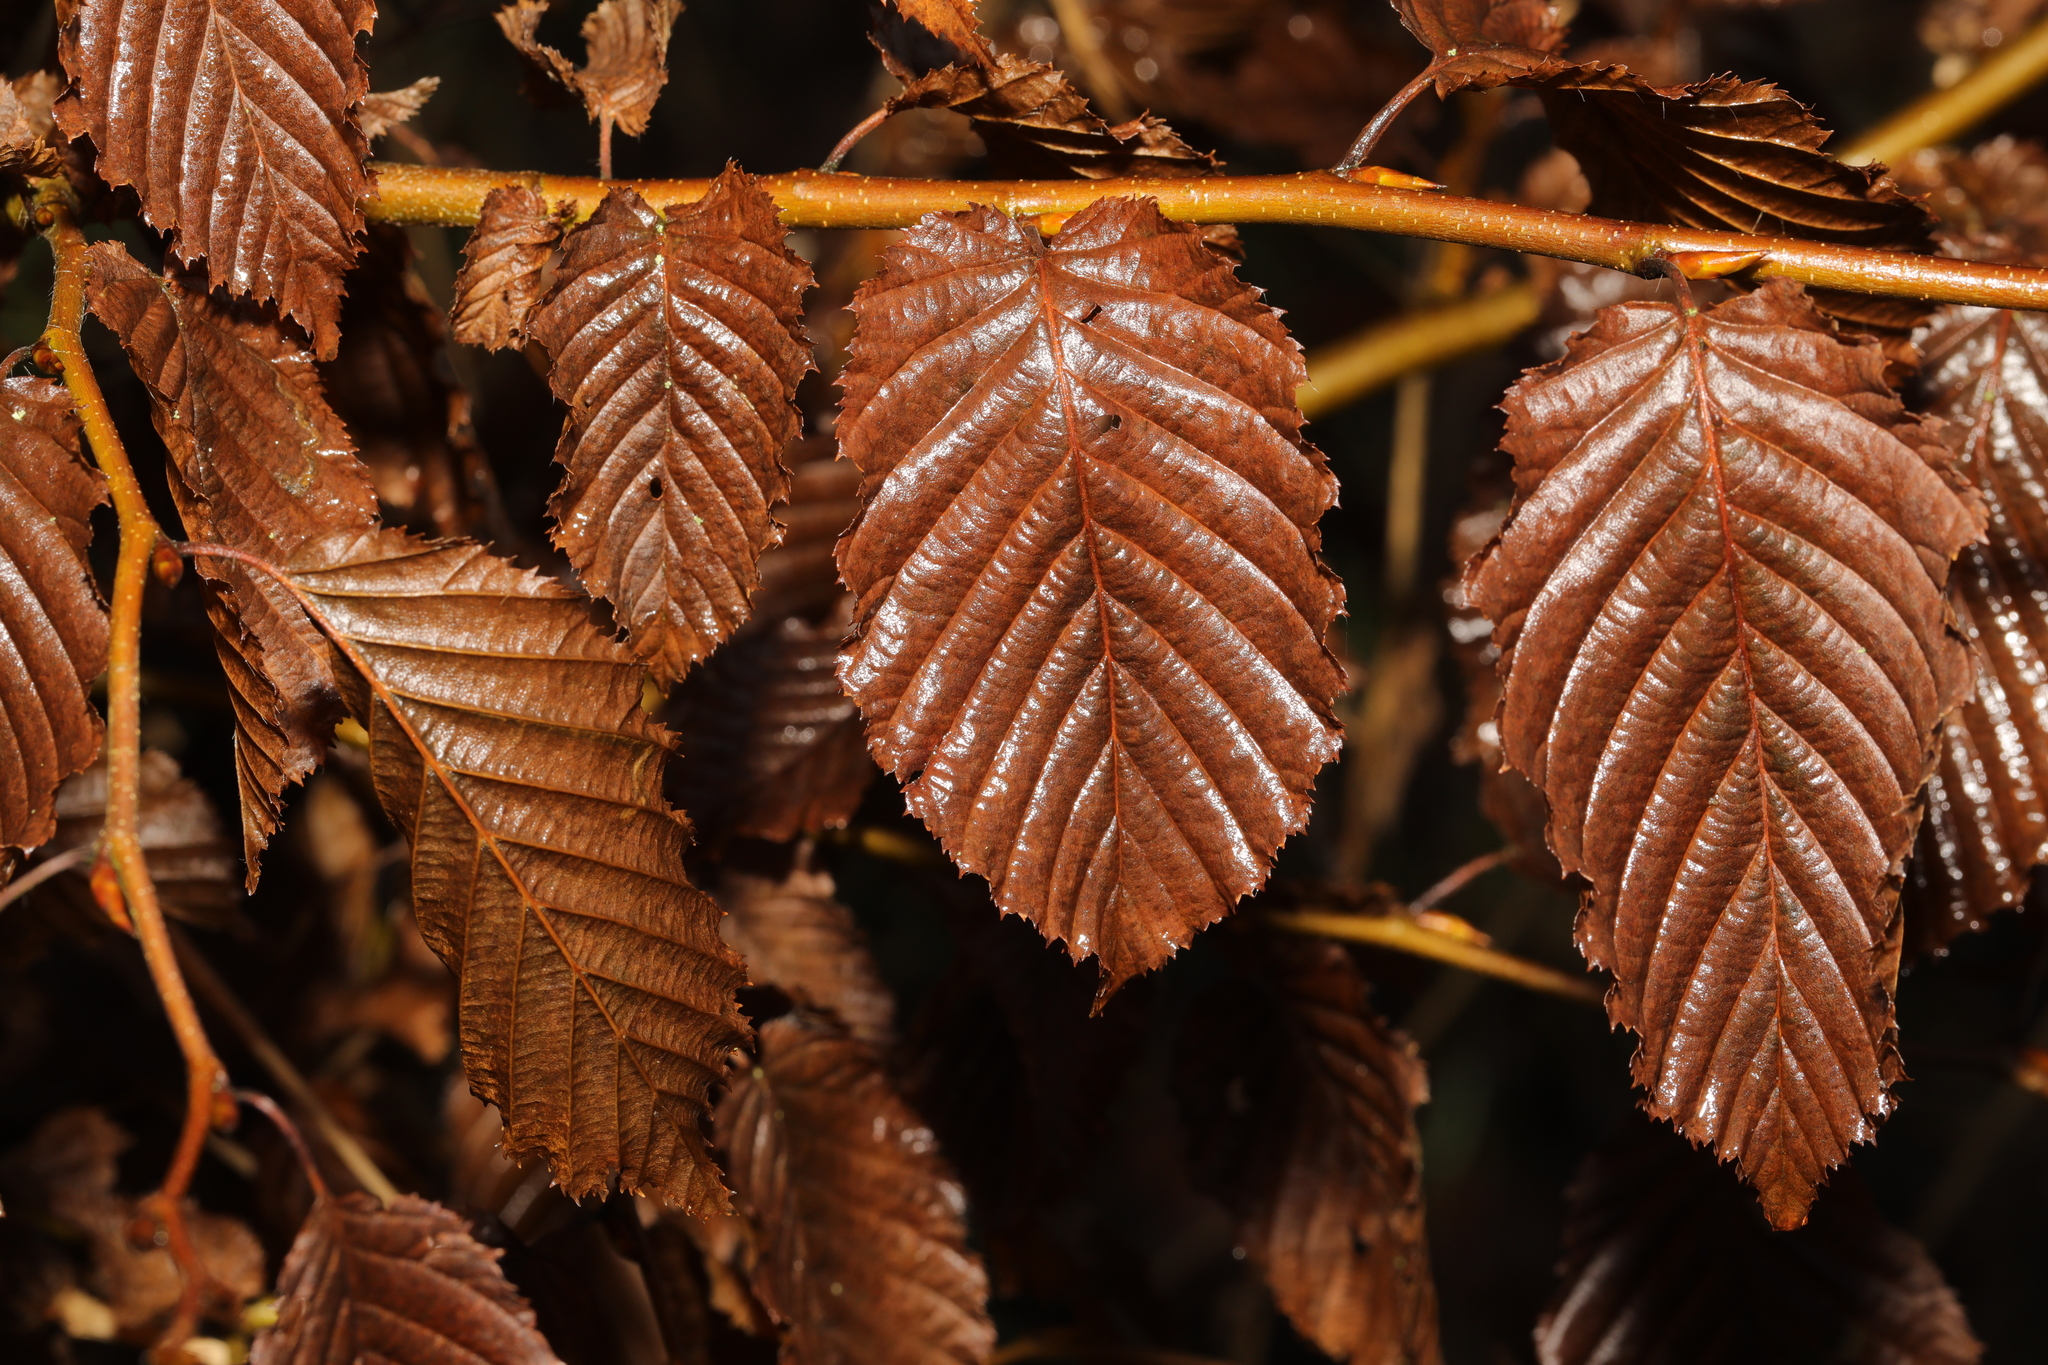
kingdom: Plantae
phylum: Tracheophyta
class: Magnoliopsida
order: Fagales
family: Betulaceae
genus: Carpinus
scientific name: Carpinus betulus
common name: Hornbeam
